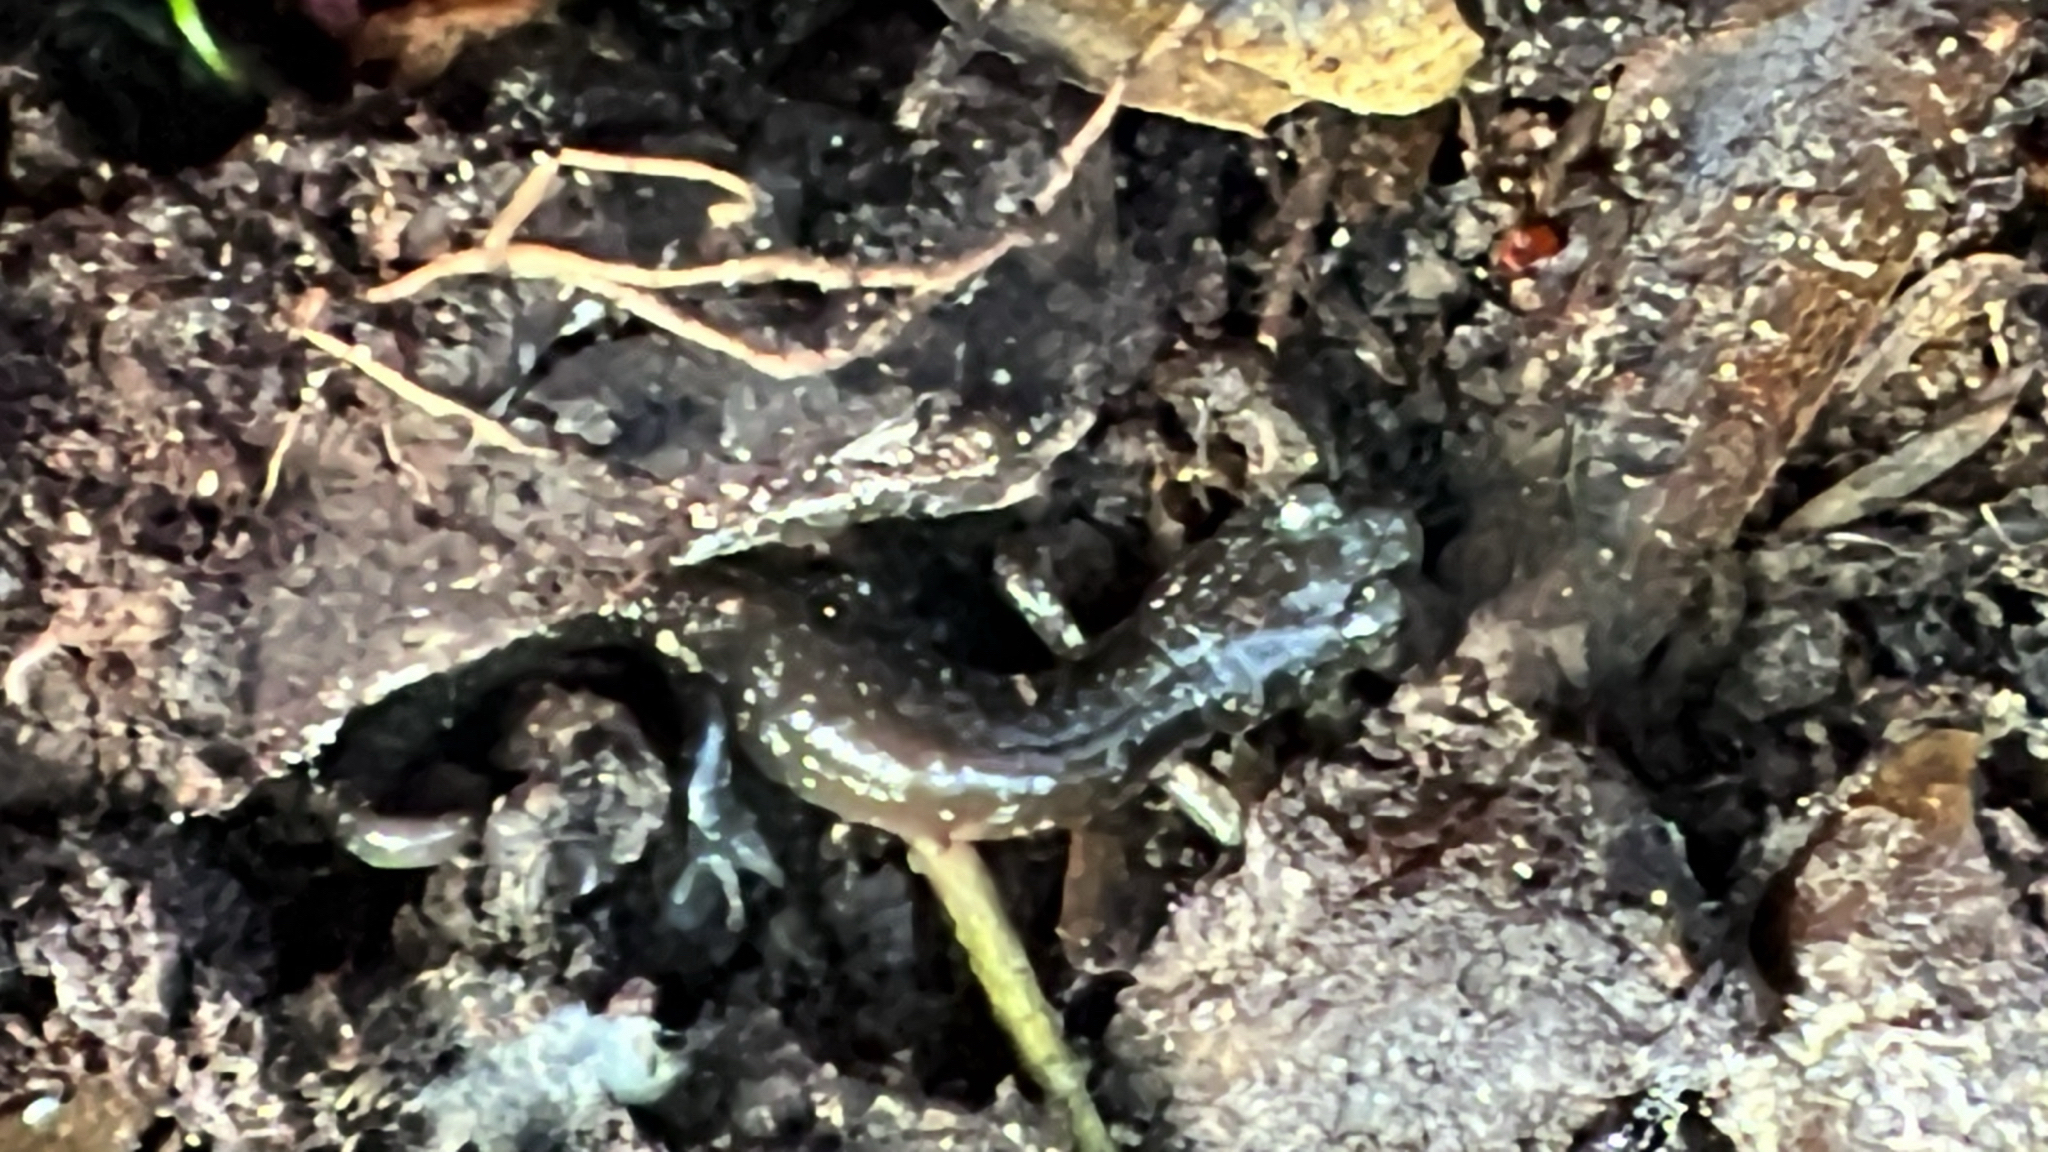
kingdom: Animalia
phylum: Chordata
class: Amphibia
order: Caudata
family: Plethodontidae
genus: Aneides
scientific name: Aneides lugubris
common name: Arboreal salamander
